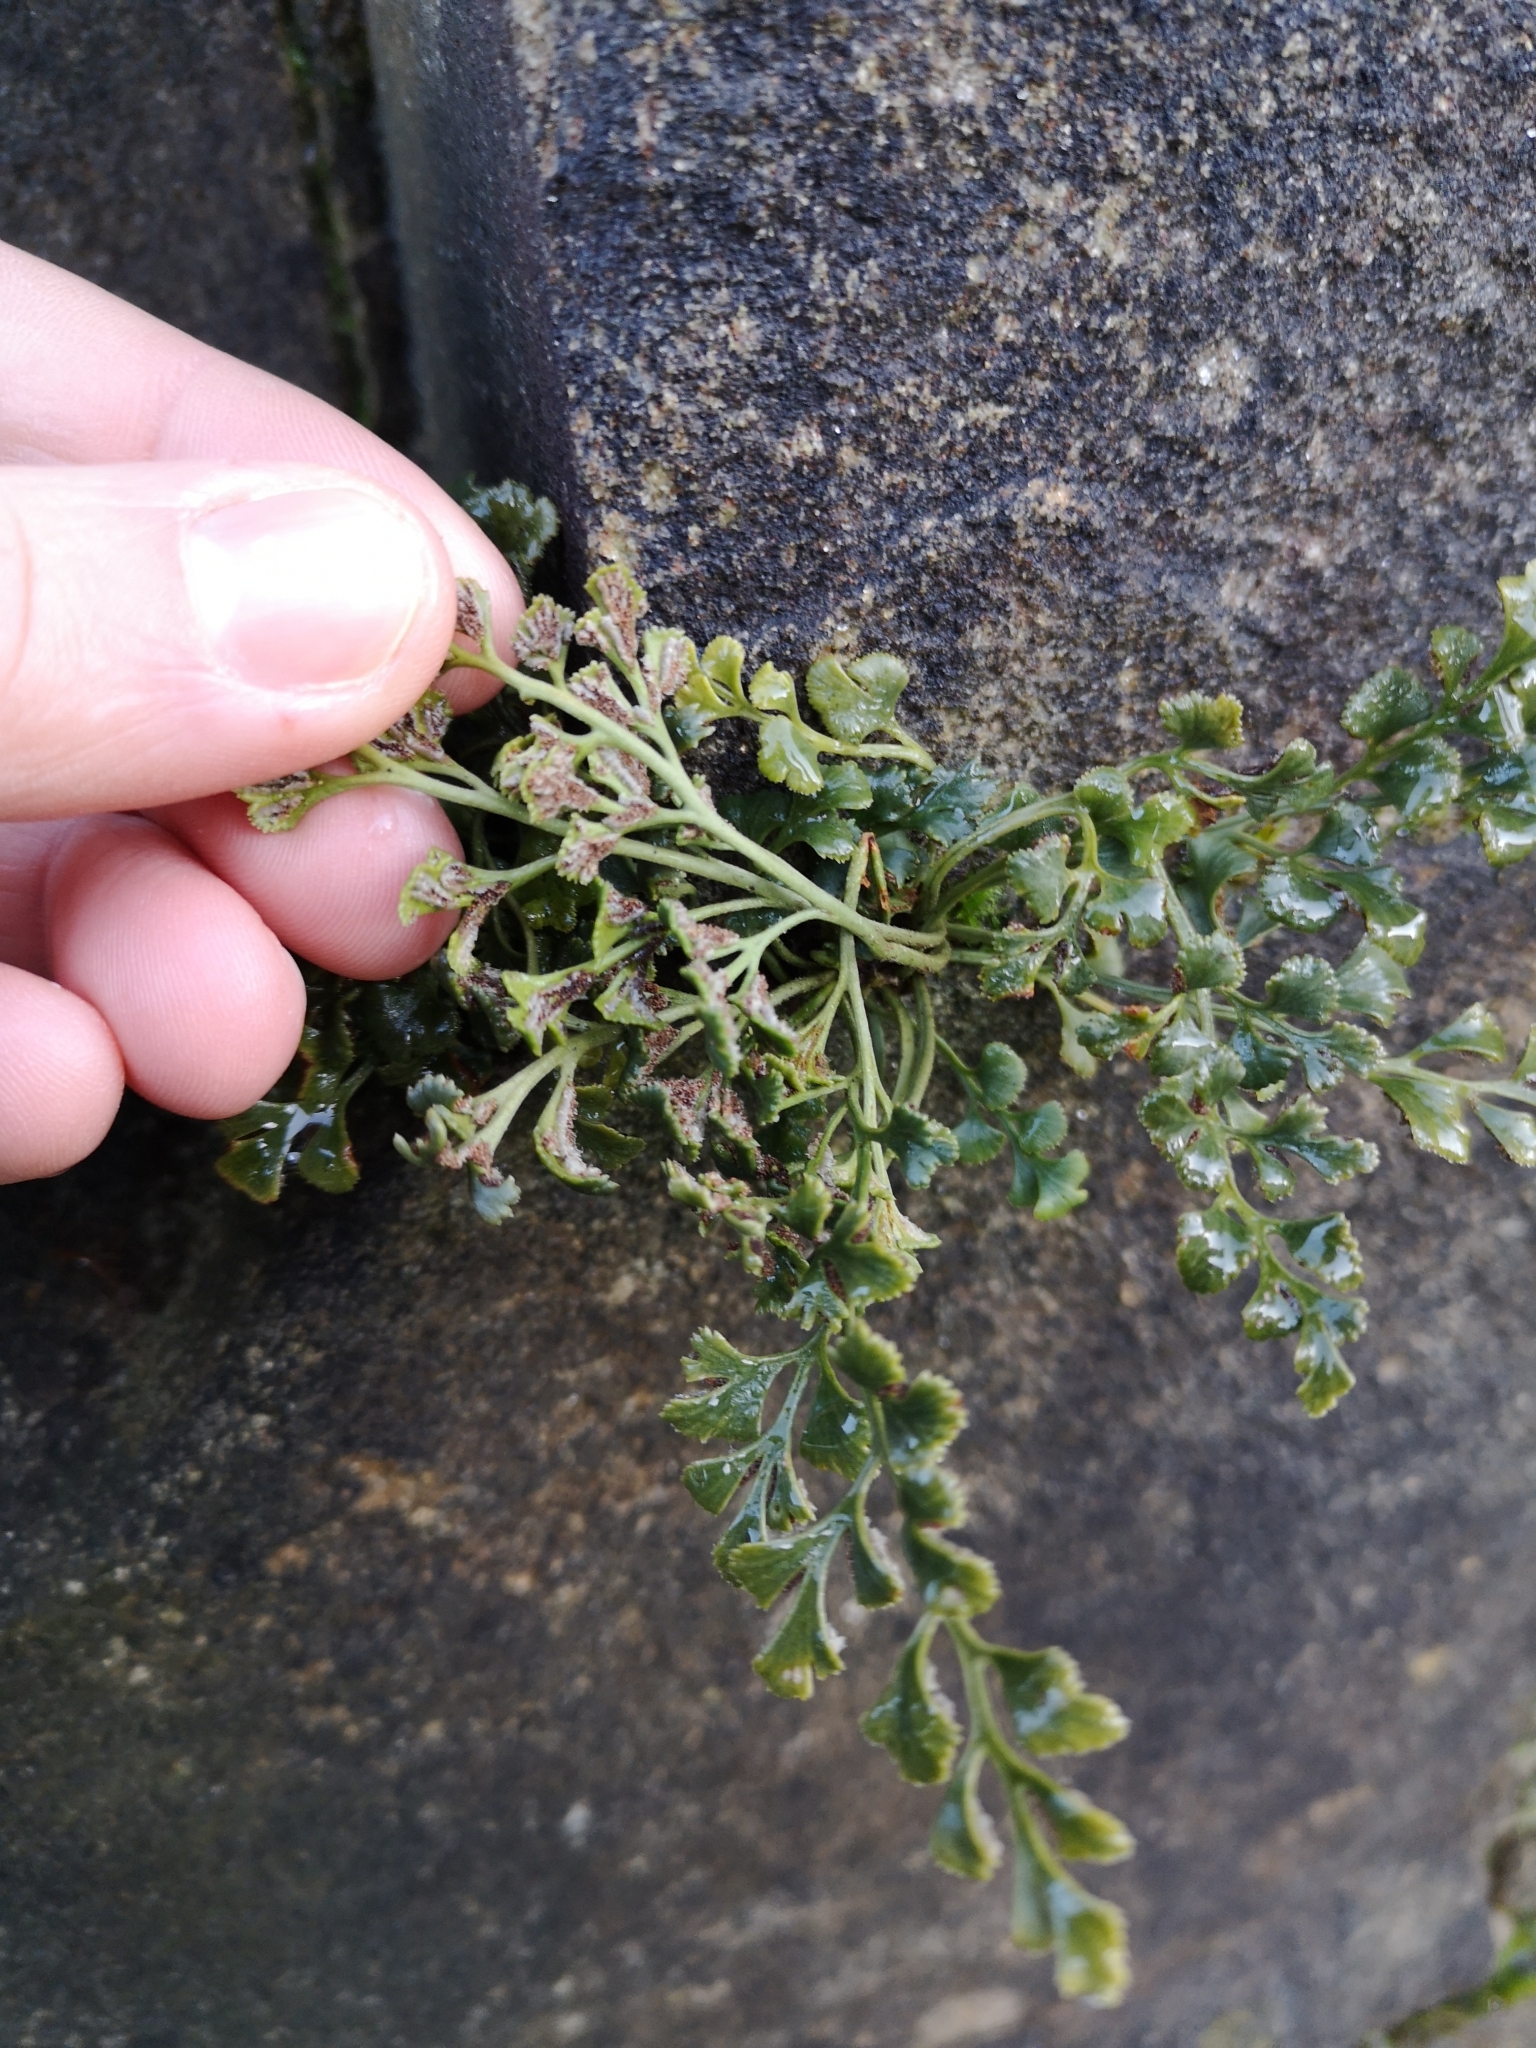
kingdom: Plantae
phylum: Tracheophyta
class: Polypodiopsida
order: Polypodiales
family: Aspleniaceae
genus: Asplenium
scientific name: Asplenium ruta-muraria
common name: Wall-rue
